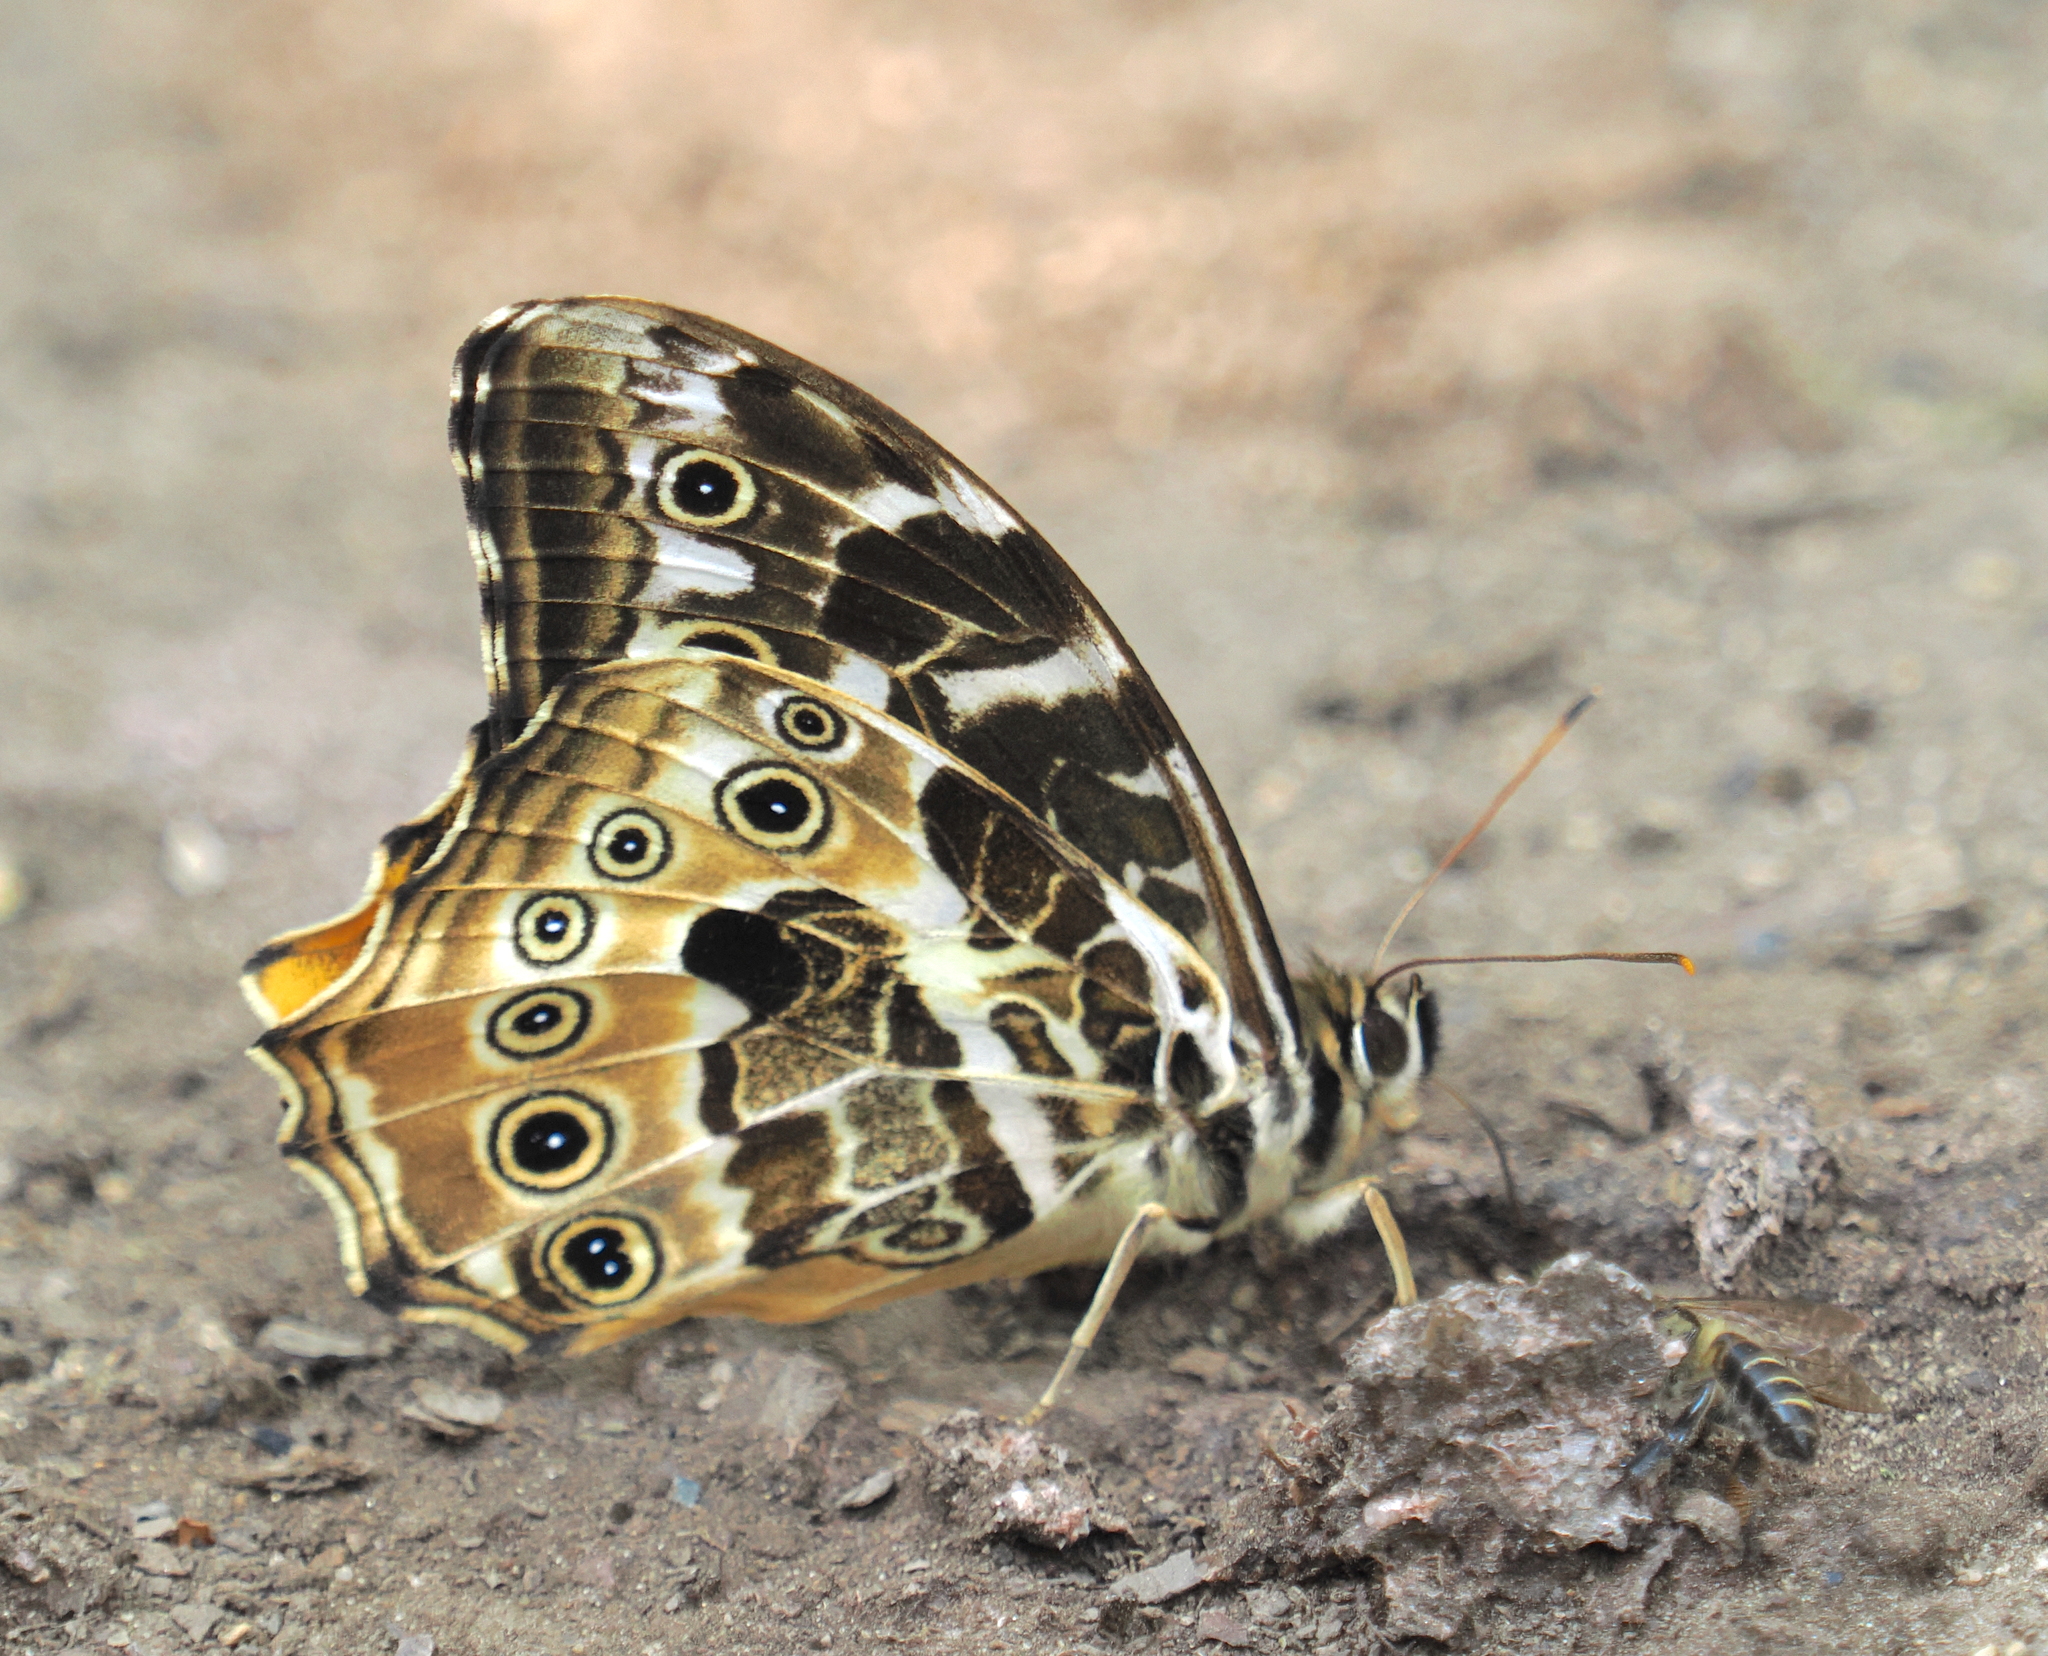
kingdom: Animalia
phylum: Arthropoda
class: Insecta
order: Lepidoptera
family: Nymphalidae
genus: Neope
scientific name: Neope armandii
